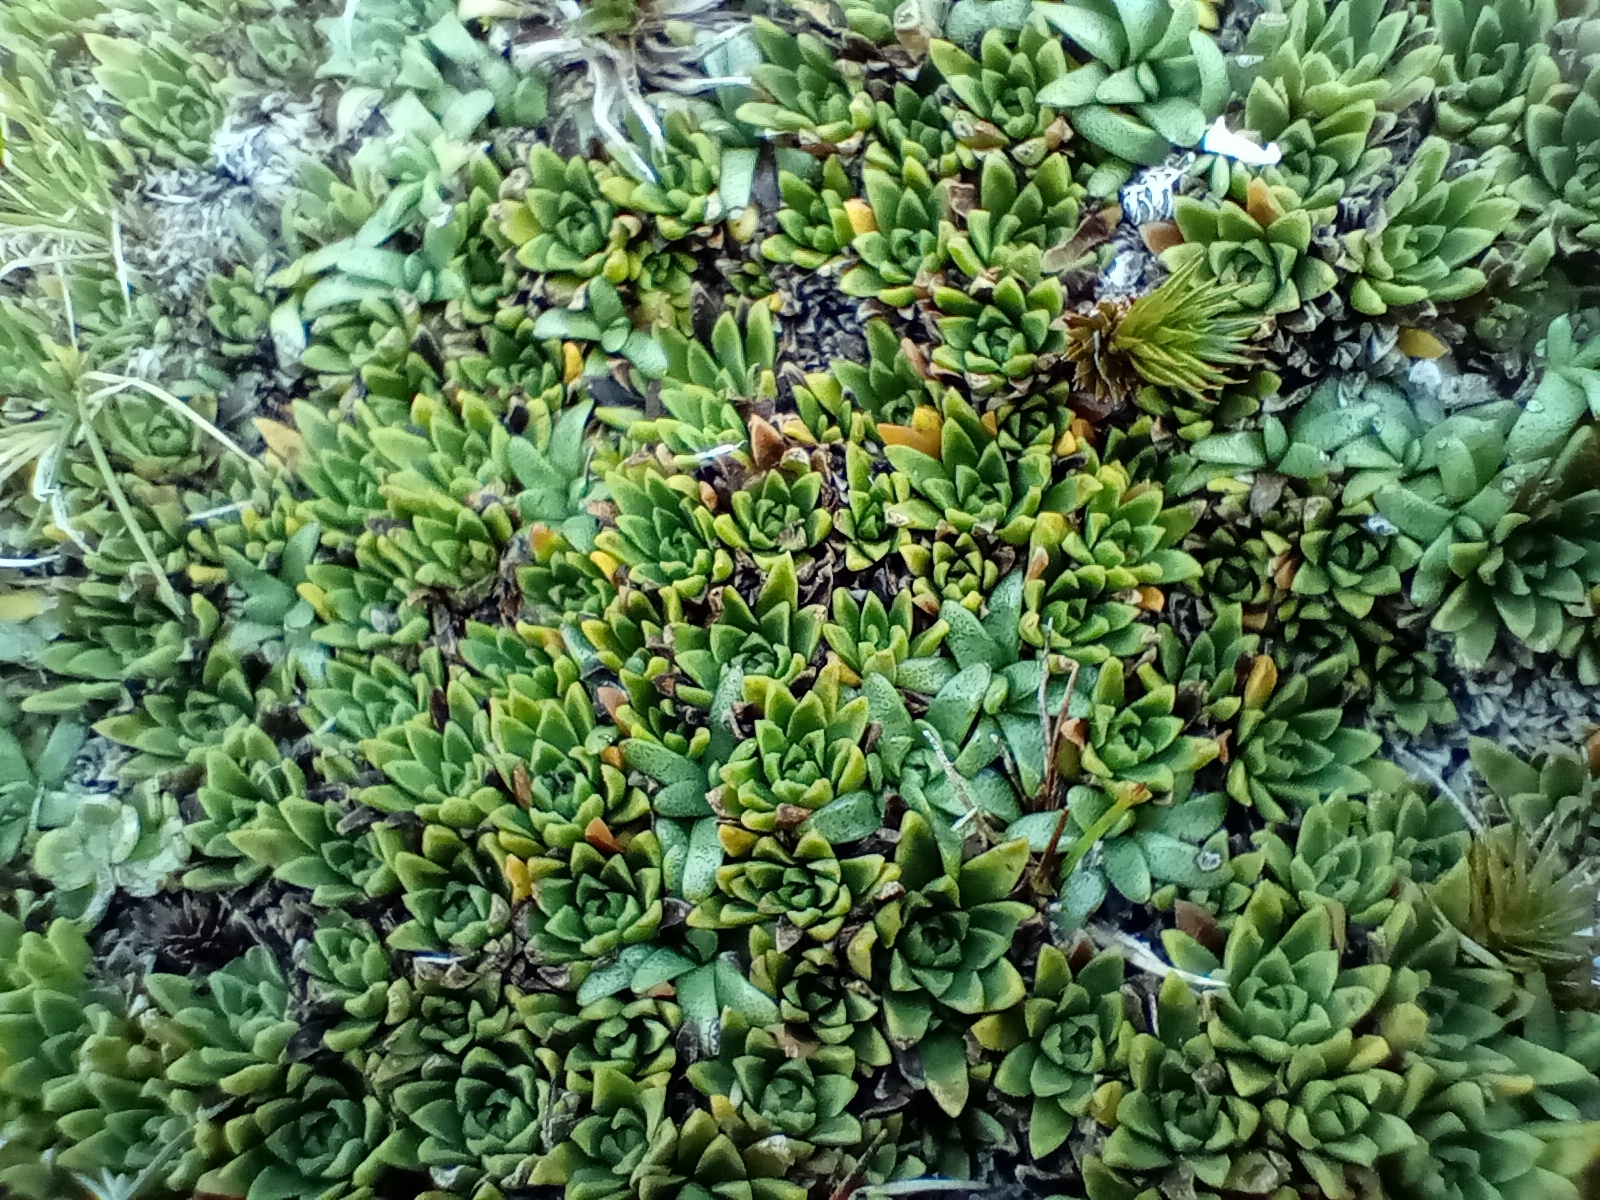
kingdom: Plantae
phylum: Tracheophyta
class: Magnoliopsida
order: Caryophyllales
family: Montiaceae
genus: Hectorella
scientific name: Hectorella caespitosa
